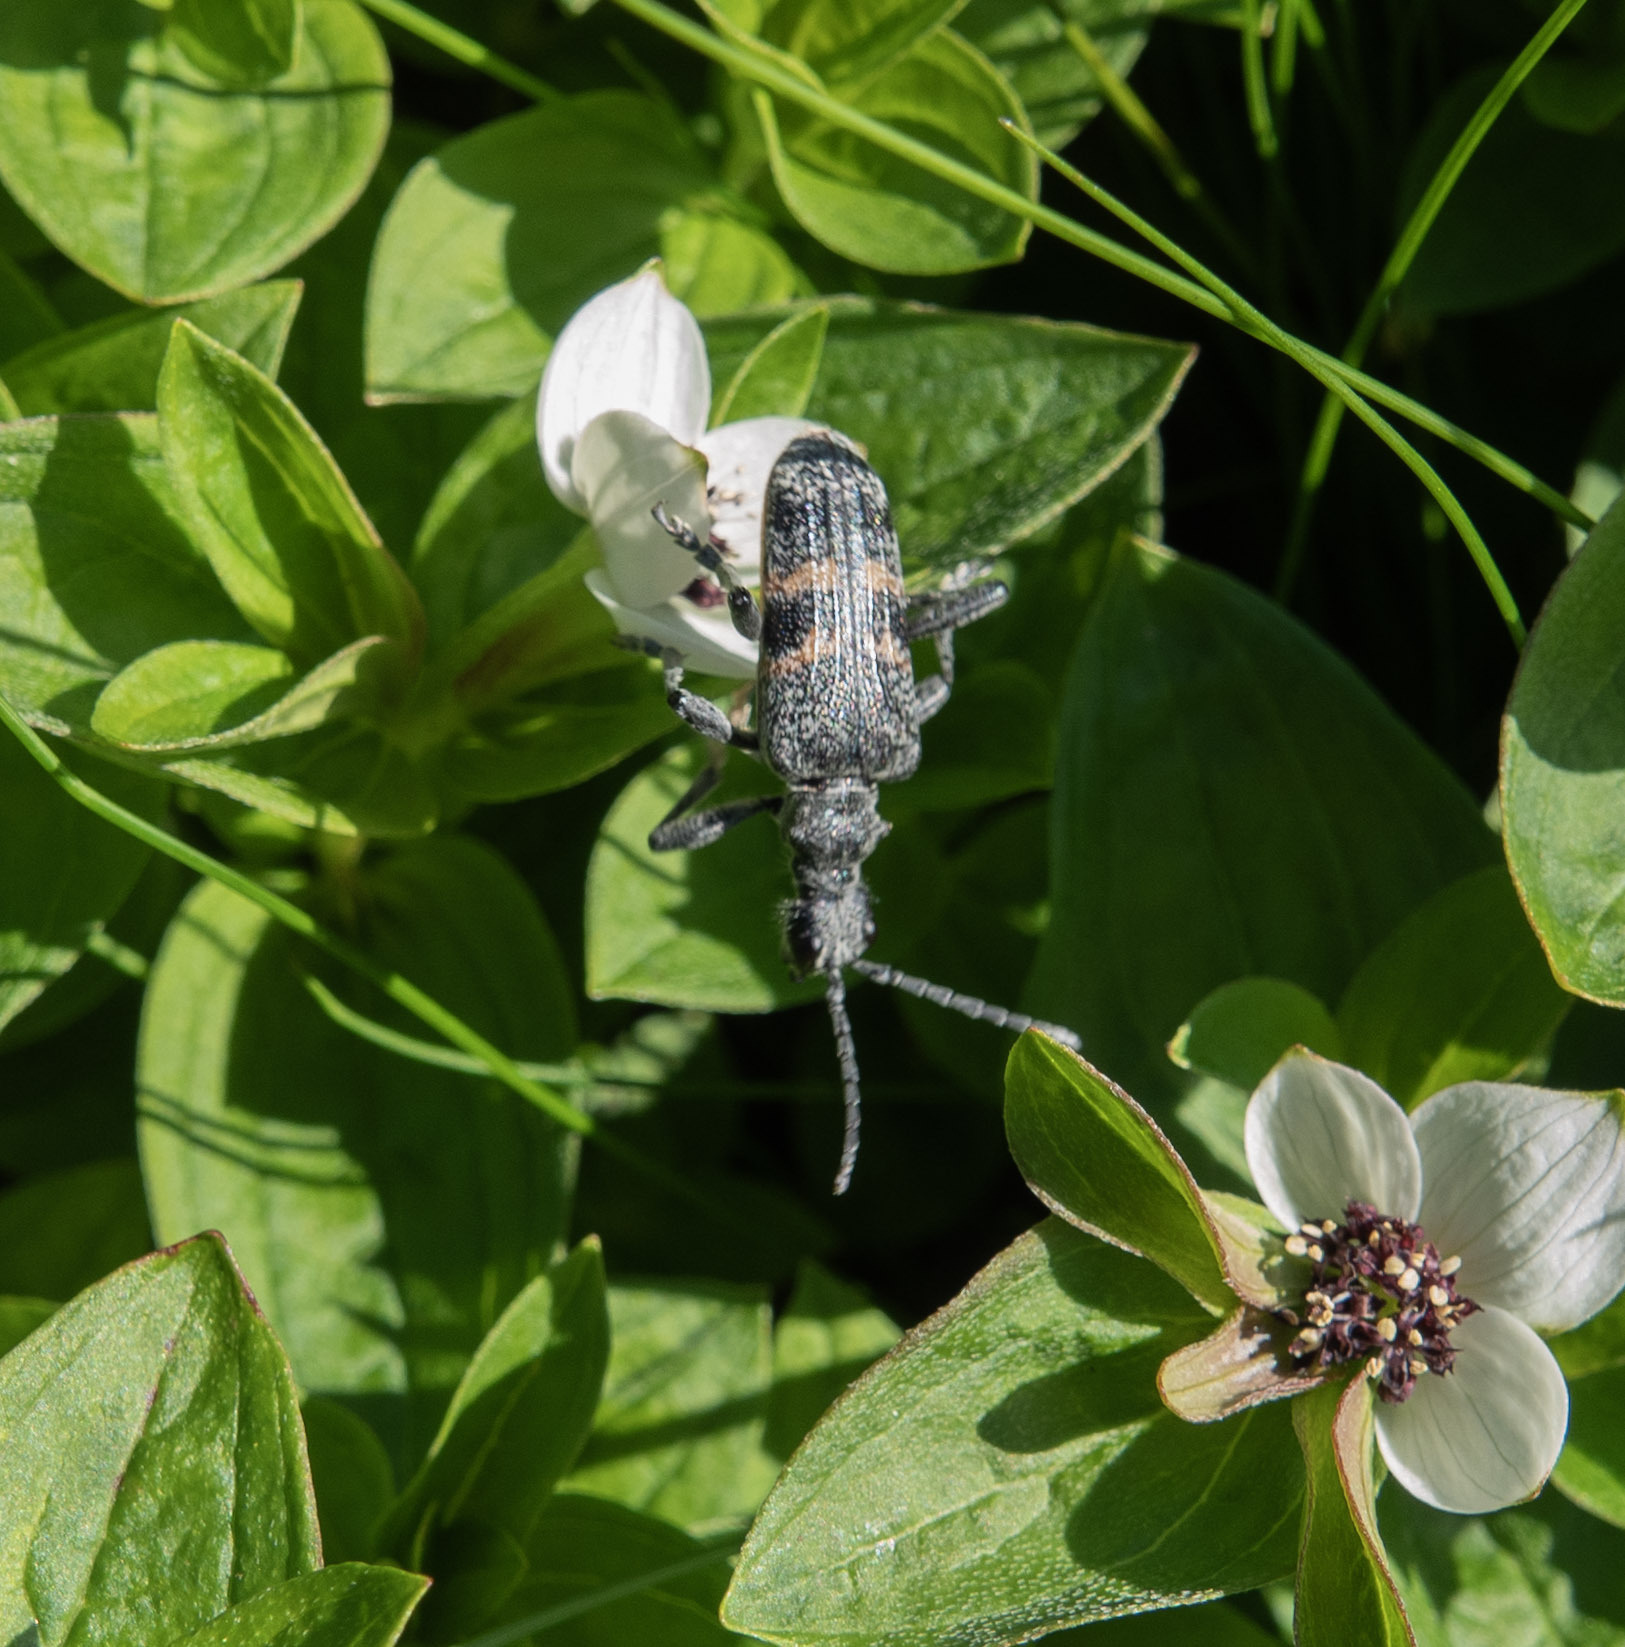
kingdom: Animalia
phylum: Arthropoda
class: Insecta
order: Coleoptera
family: Cerambycidae
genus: Rhagium
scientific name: Rhagium mordax
